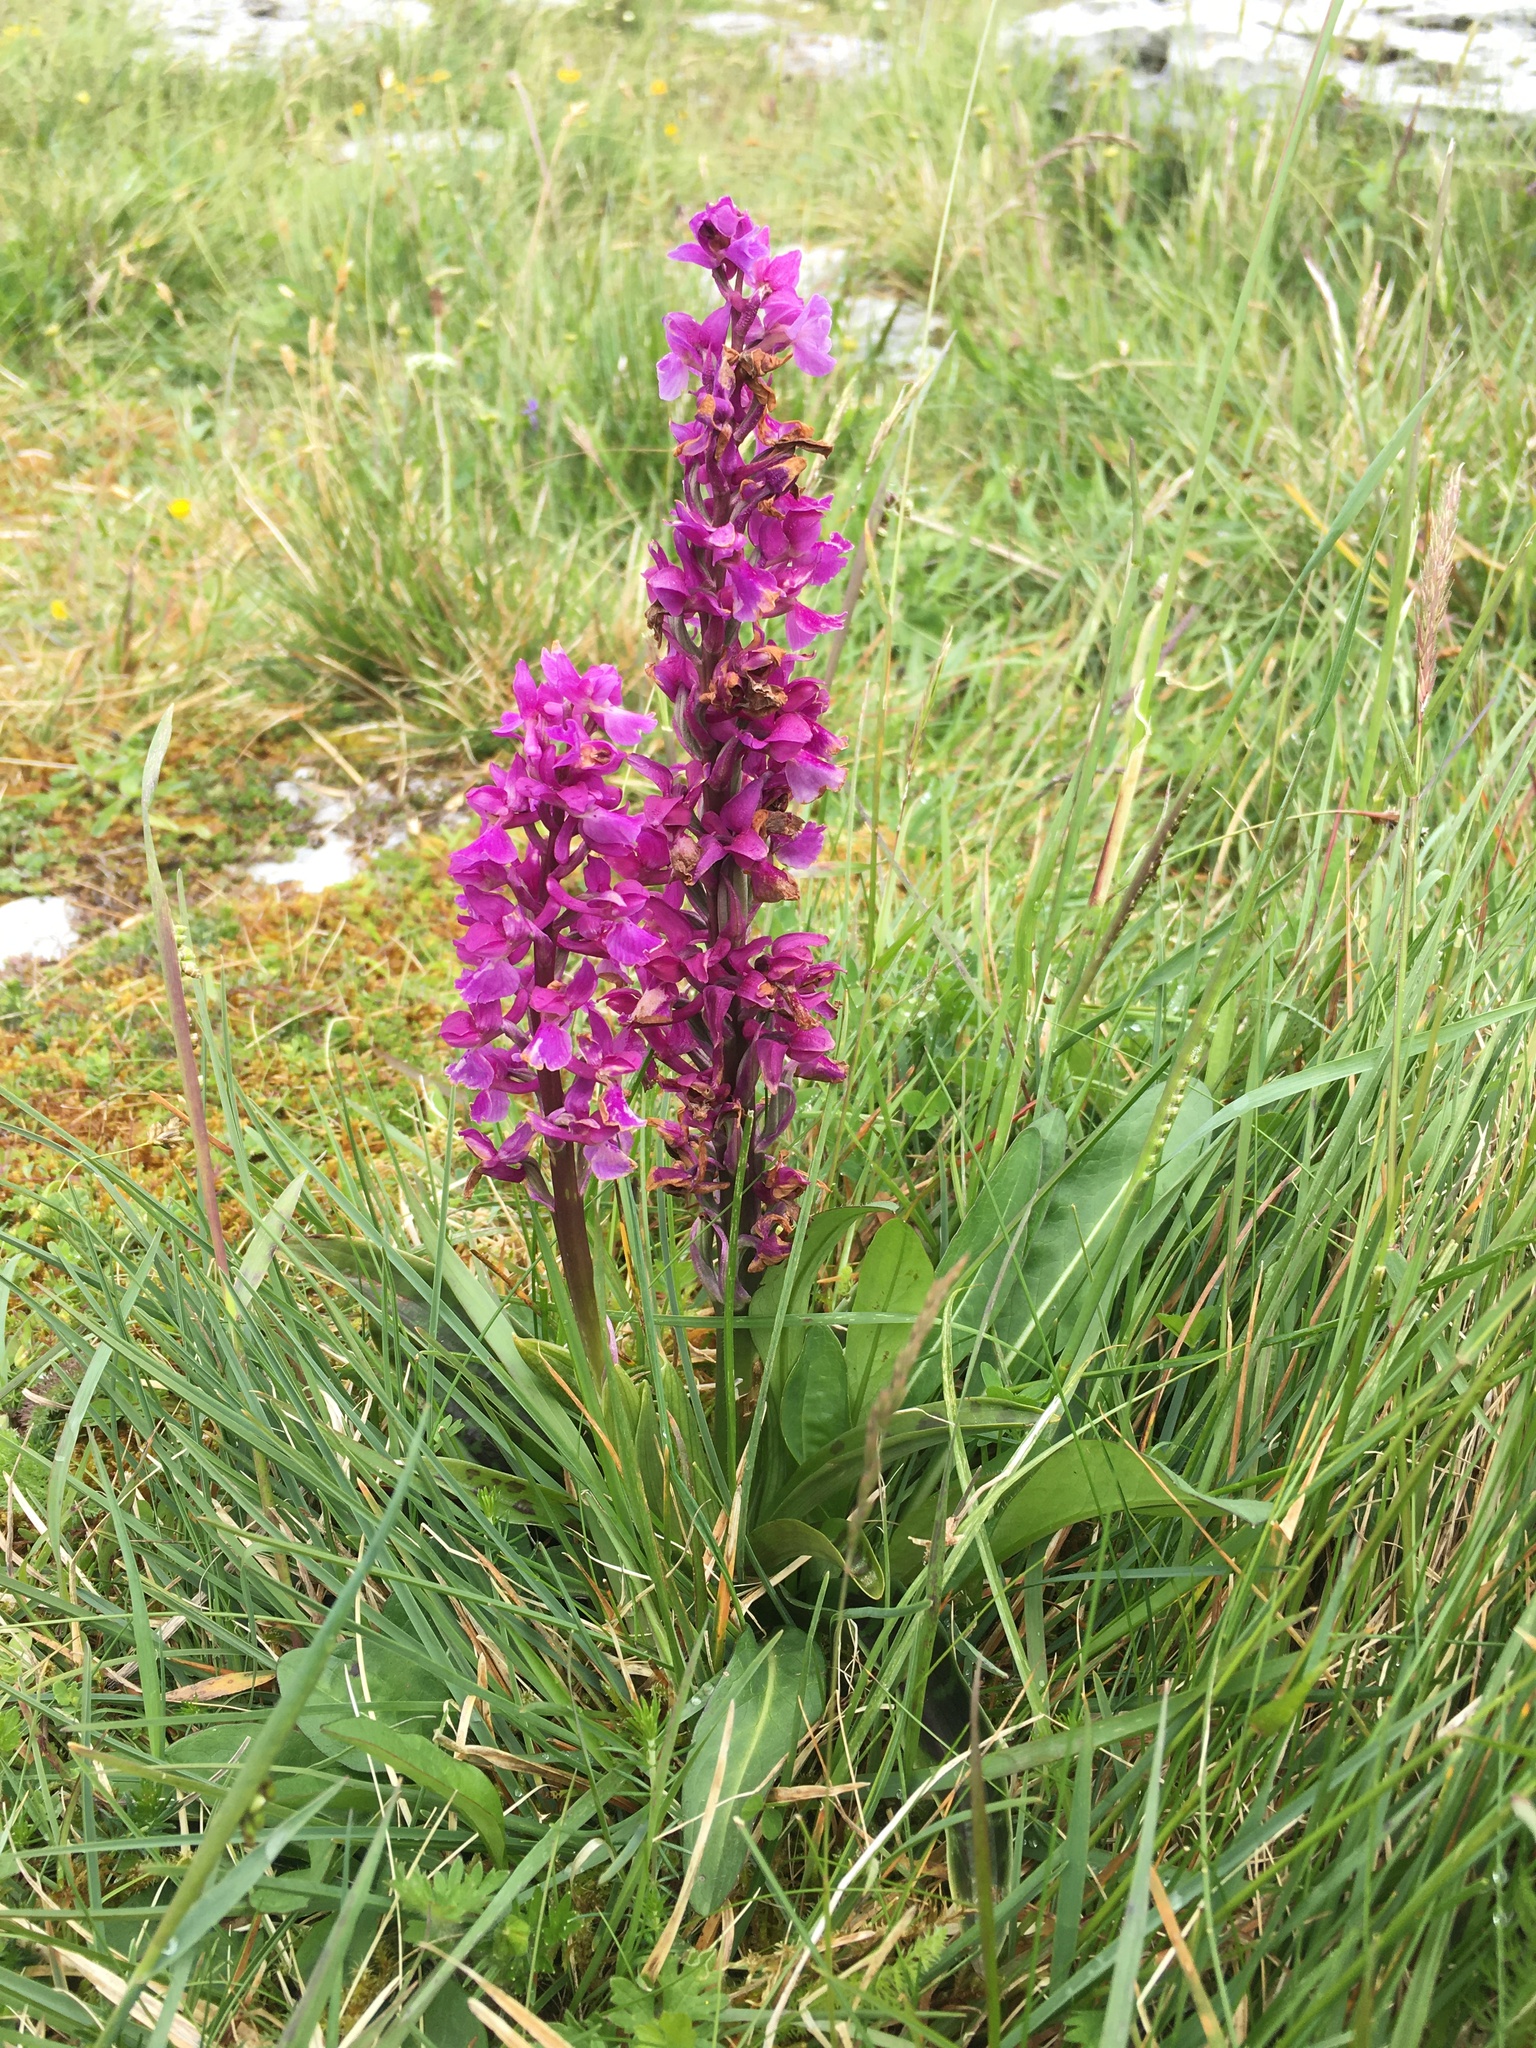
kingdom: Plantae
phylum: Tracheophyta
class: Liliopsida
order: Asparagales
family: Orchidaceae
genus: Orchis
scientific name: Orchis mascula
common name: Early-purple orchid
